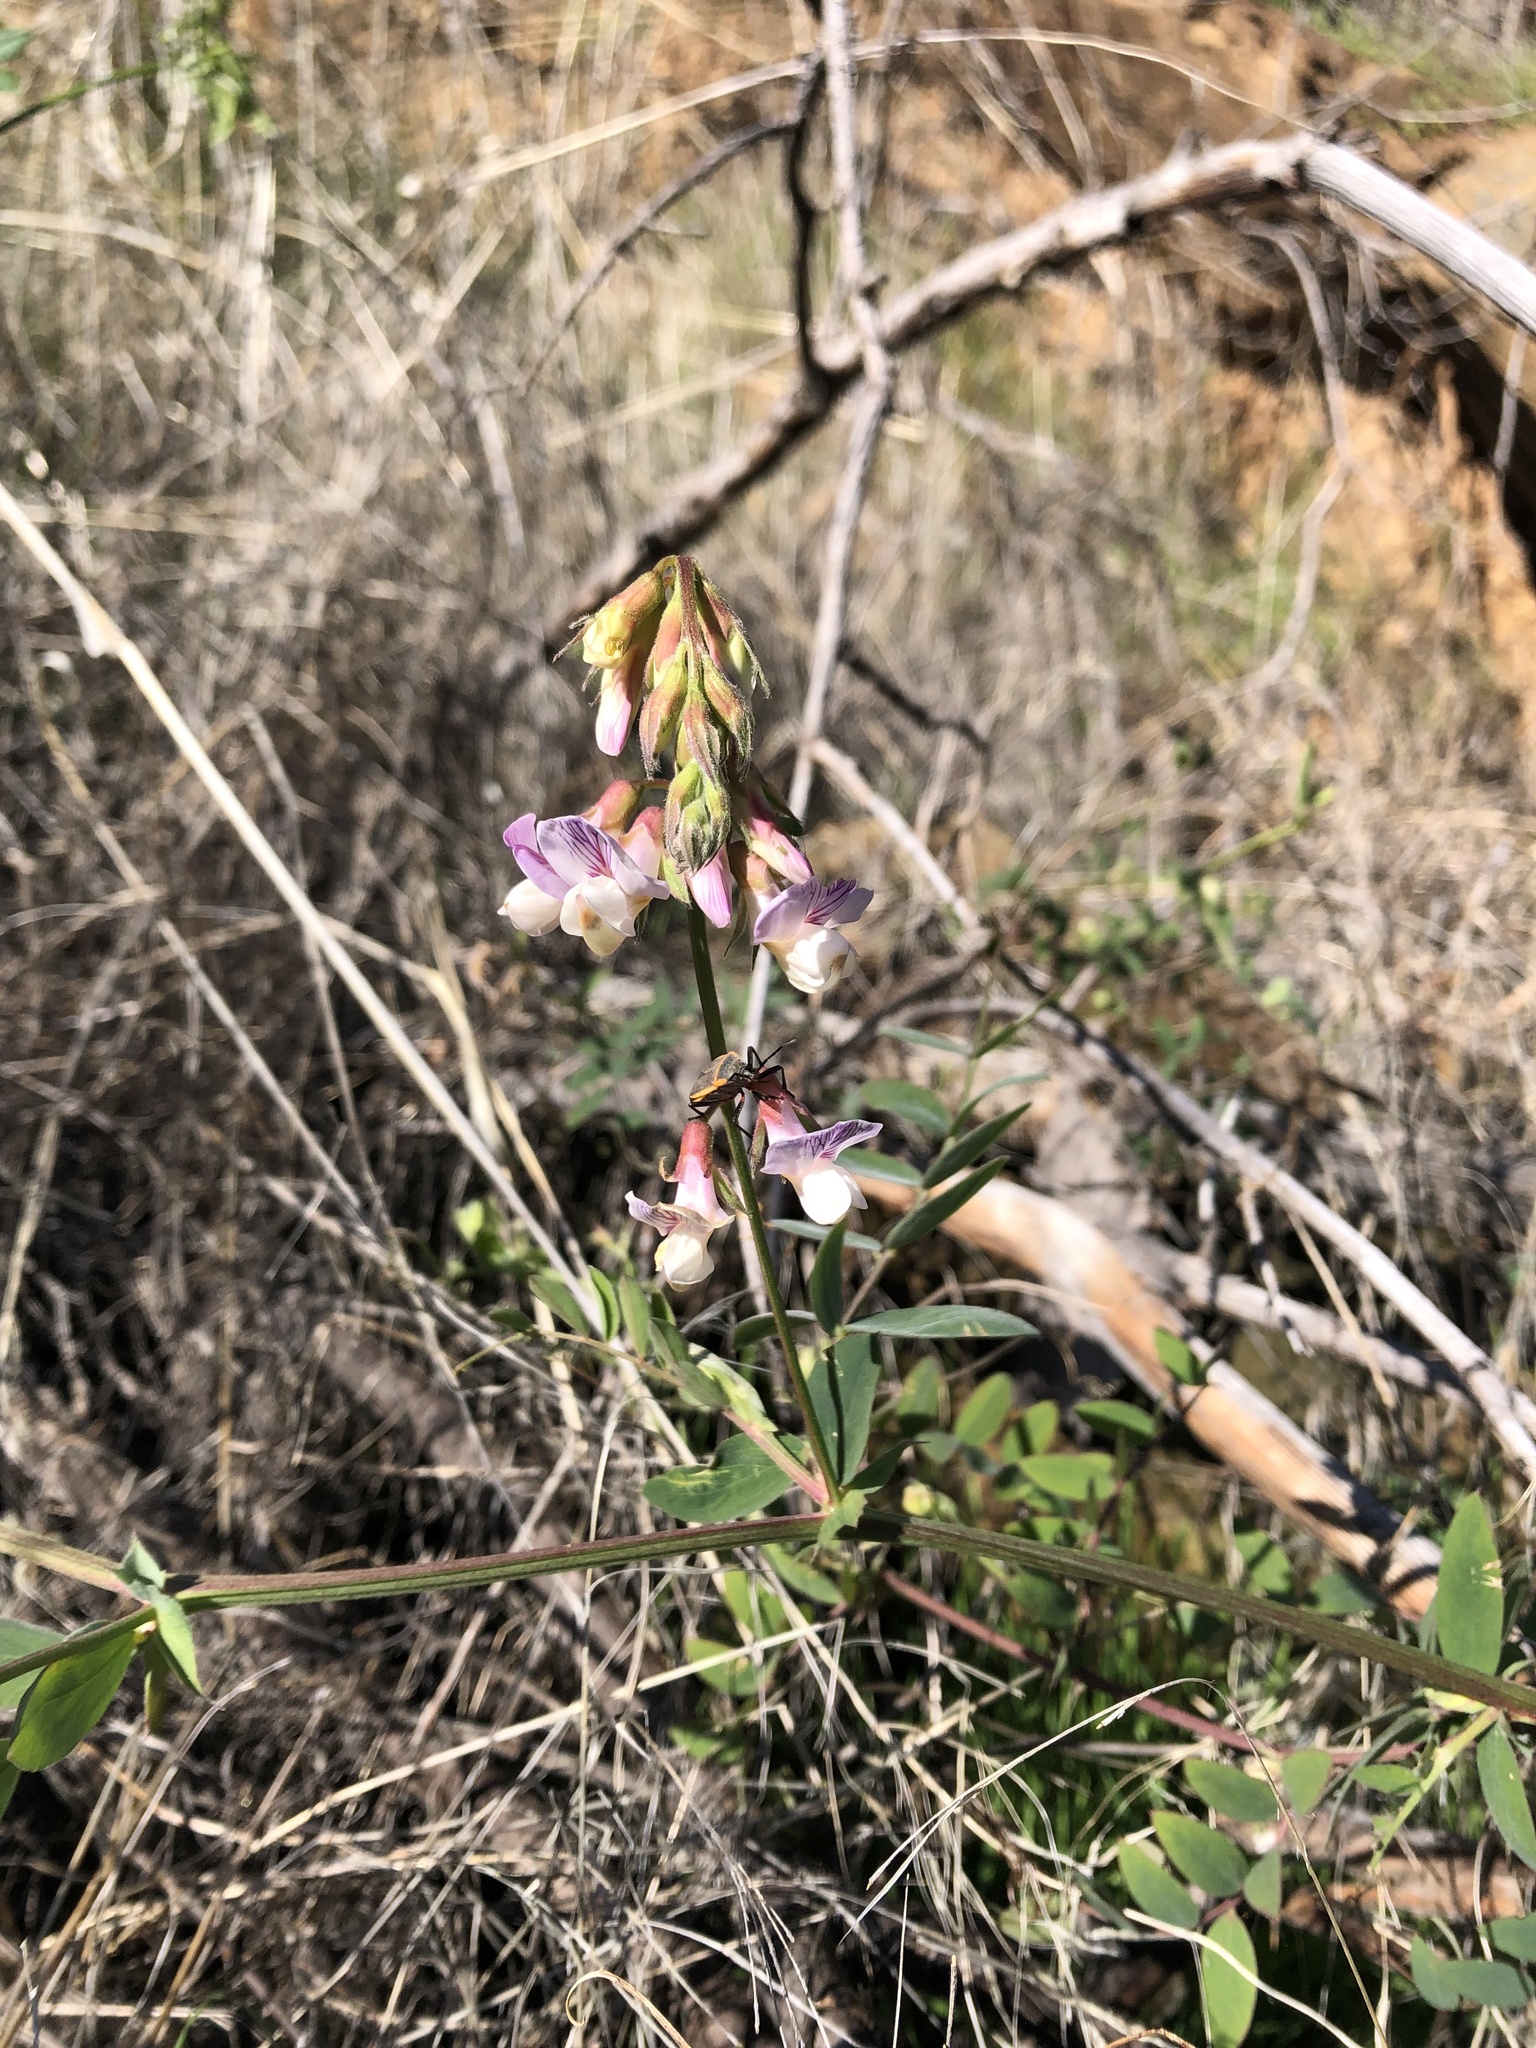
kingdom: Plantae
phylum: Tracheophyta
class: Magnoliopsida
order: Fabales
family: Fabaceae
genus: Lathyrus
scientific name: Lathyrus vestitus
